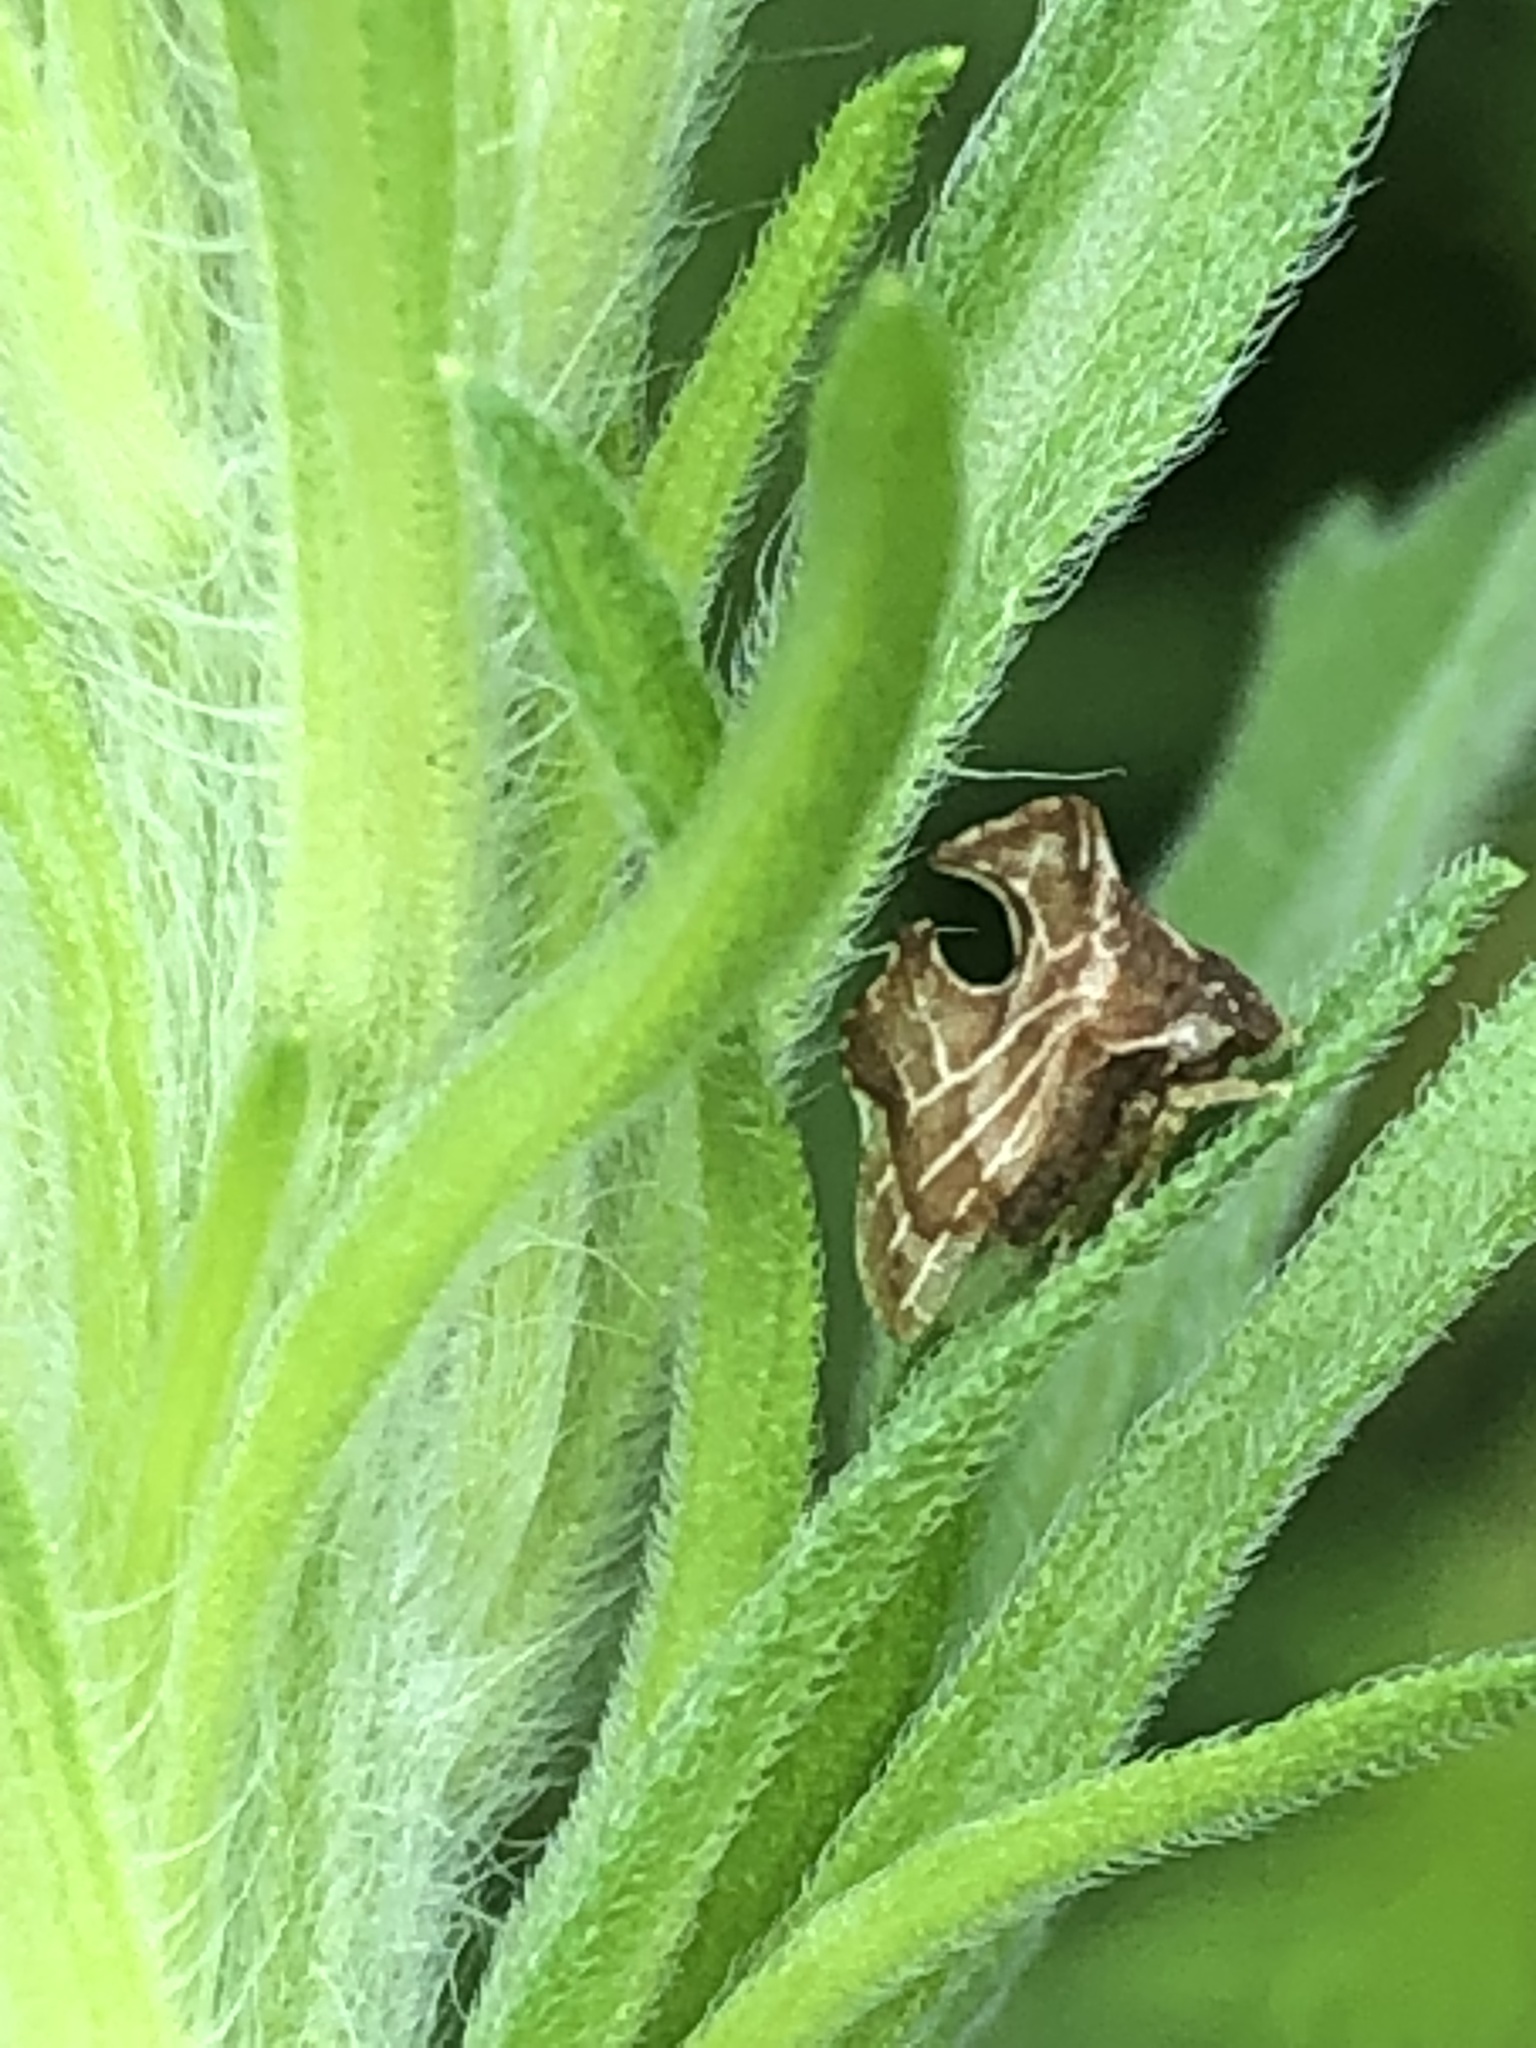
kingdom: Animalia
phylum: Arthropoda
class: Insecta
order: Hemiptera
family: Membracidae
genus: Entylia
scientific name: Entylia carinata
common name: Keeled treehopper
